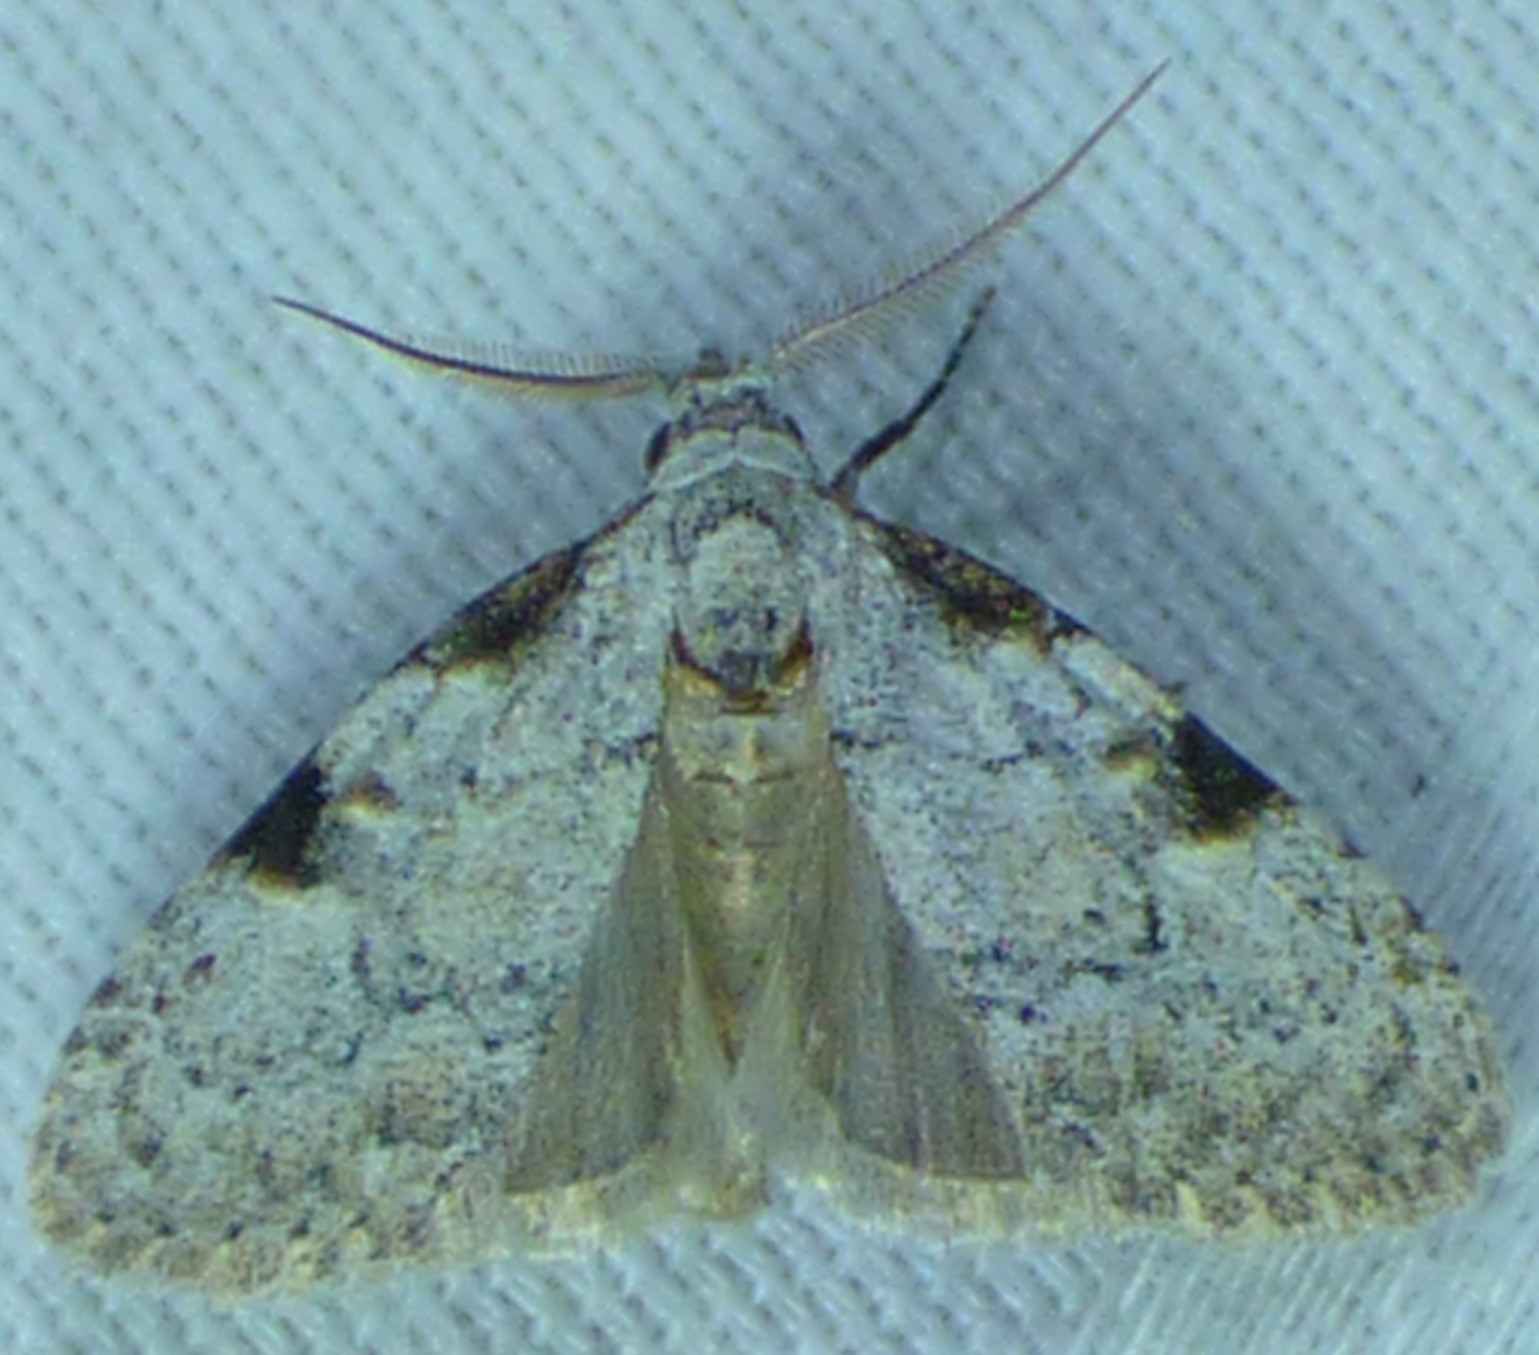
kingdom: Animalia
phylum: Arthropoda
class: Insecta
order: Lepidoptera
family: Nolidae
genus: Meganola
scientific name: Meganola minuscula
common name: Confused meganola moth
